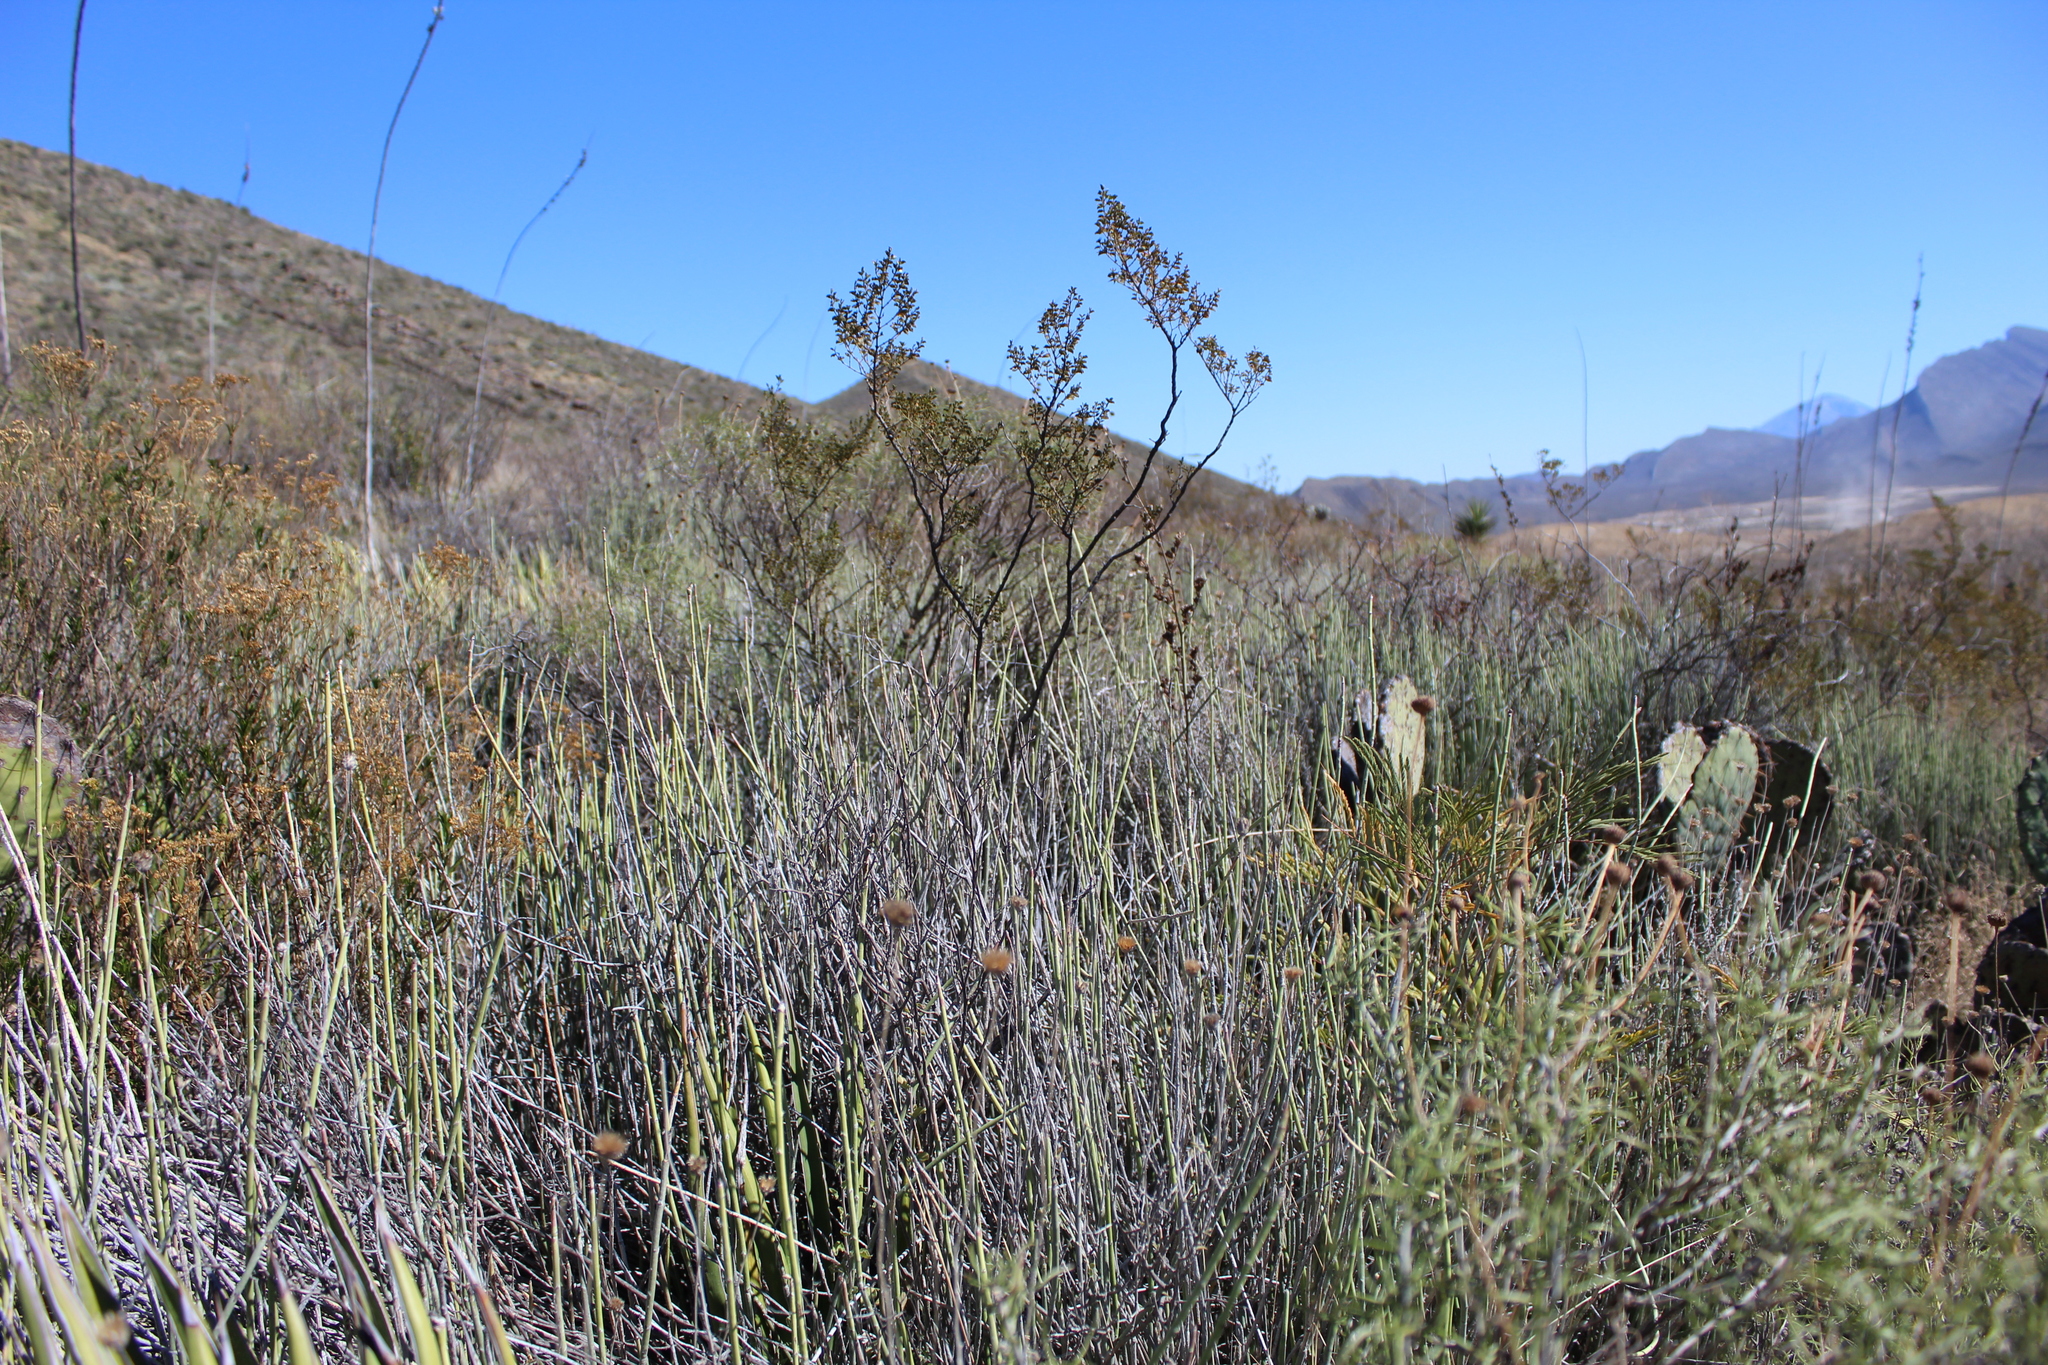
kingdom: Plantae
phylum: Tracheophyta
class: Magnoliopsida
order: Malpighiales
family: Euphorbiaceae
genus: Euphorbia
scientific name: Euphorbia antisyphilitica
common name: Candelilla
